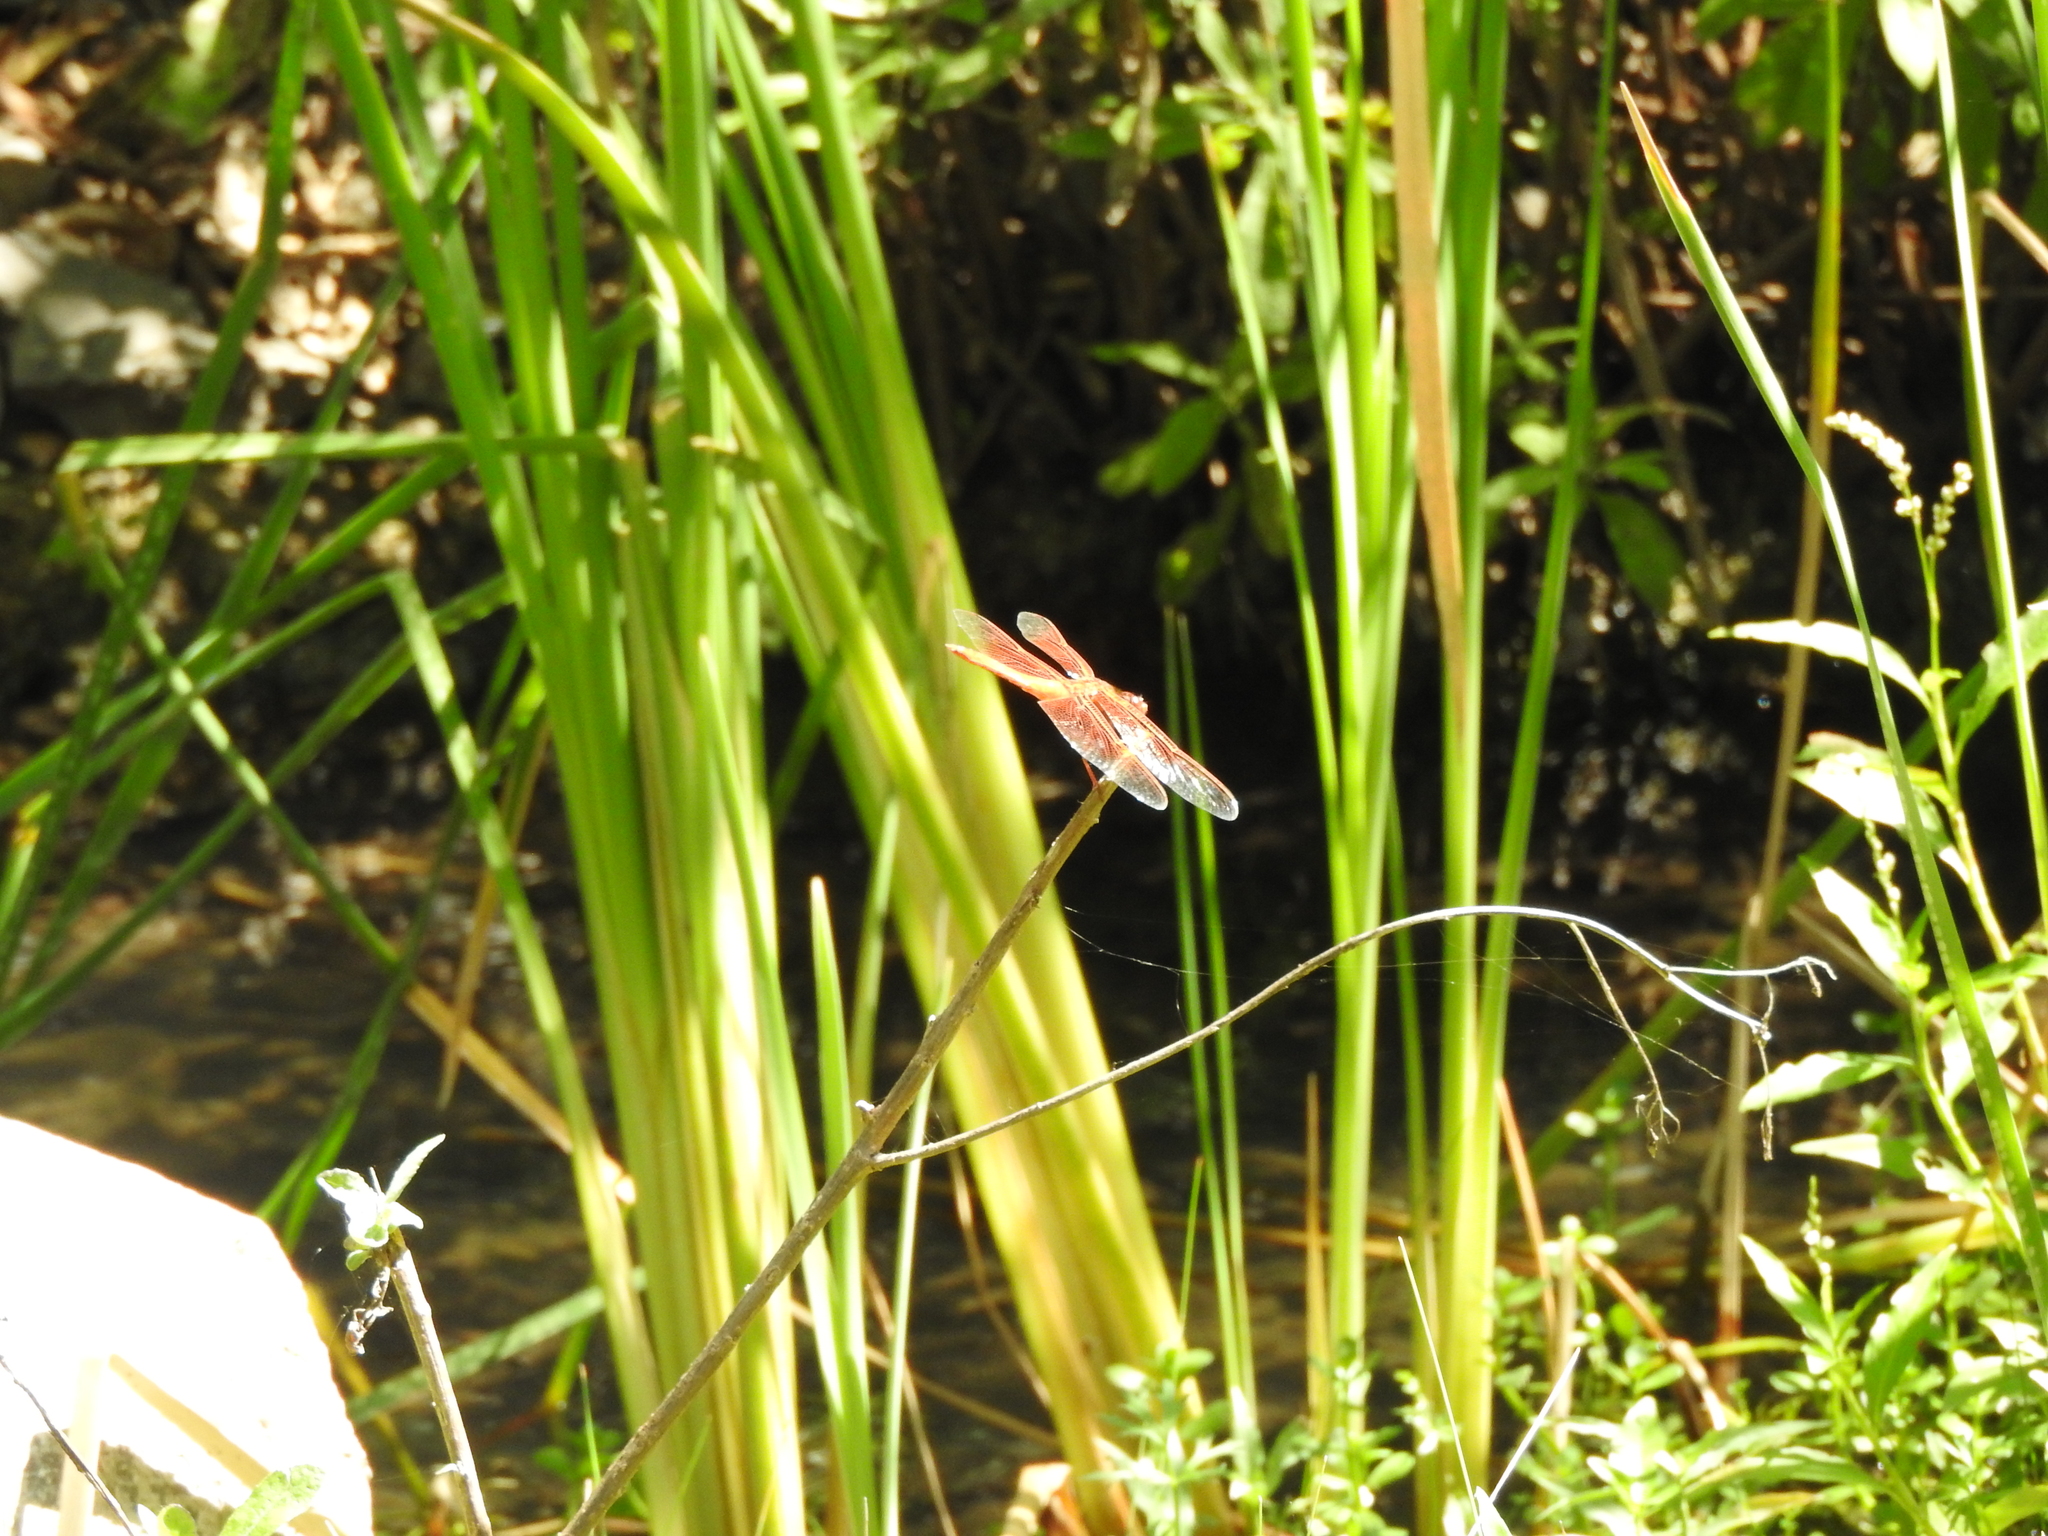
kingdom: Animalia
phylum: Arthropoda
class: Insecta
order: Odonata
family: Libellulidae
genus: Libellula
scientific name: Libellula saturata
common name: Flame skimmer
